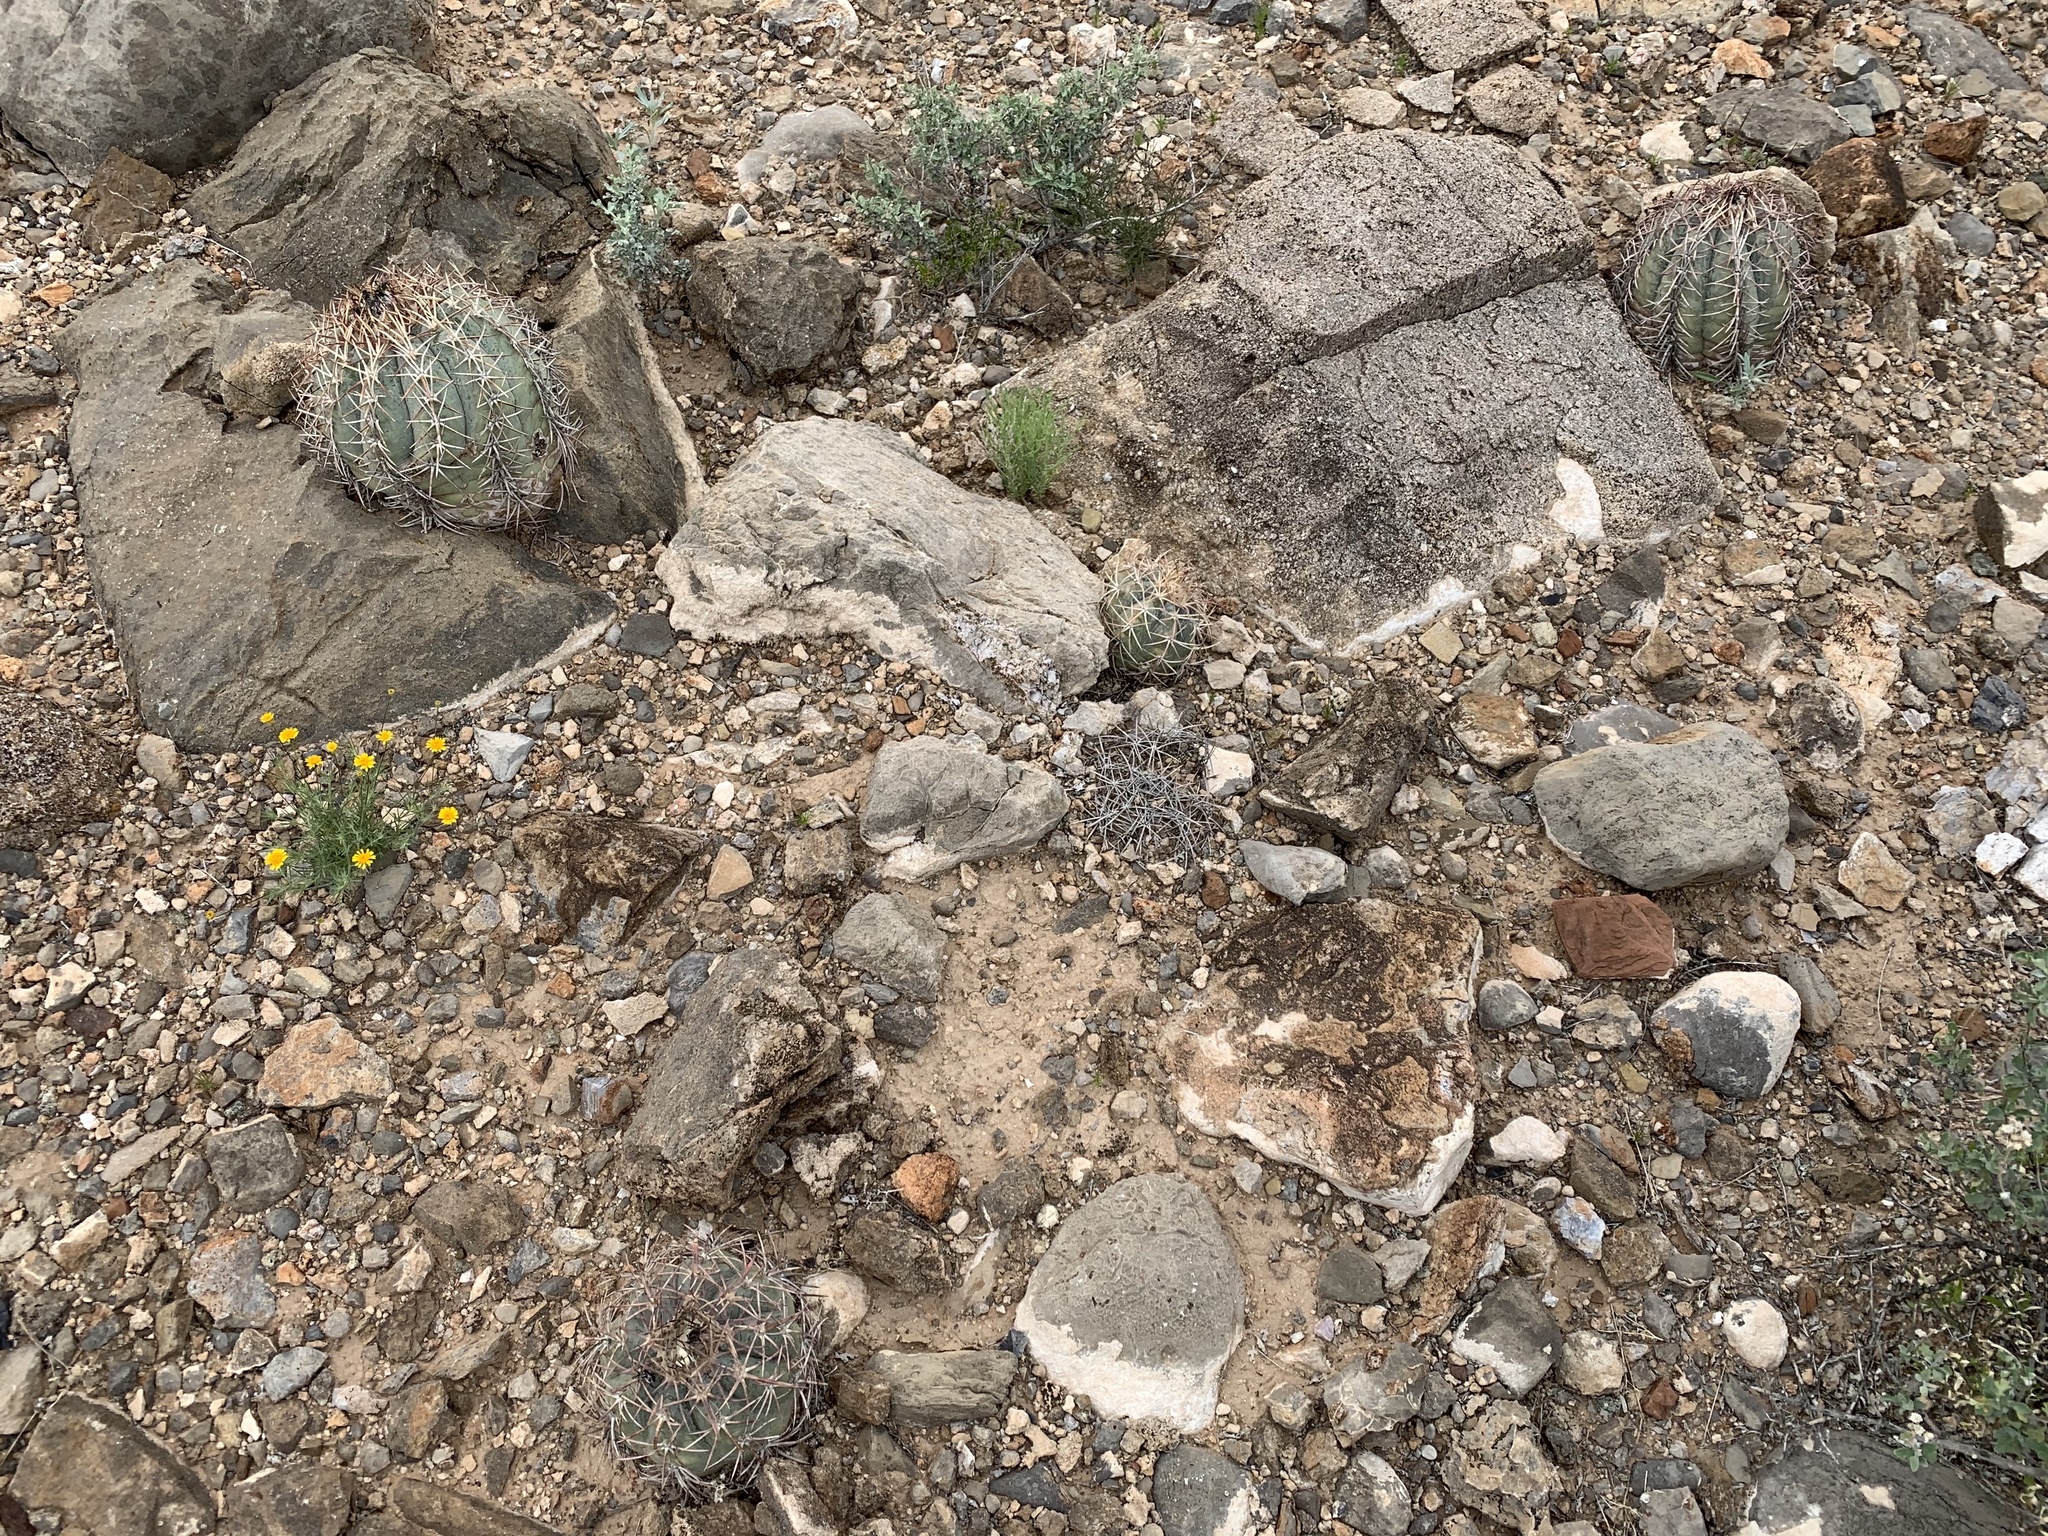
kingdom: Plantae
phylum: Tracheophyta
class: Magnoliopsida
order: Caryophyllales
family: Cactaceae
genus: Echinocactus
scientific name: Echinocactus horizonthalonius
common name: Devilshead
